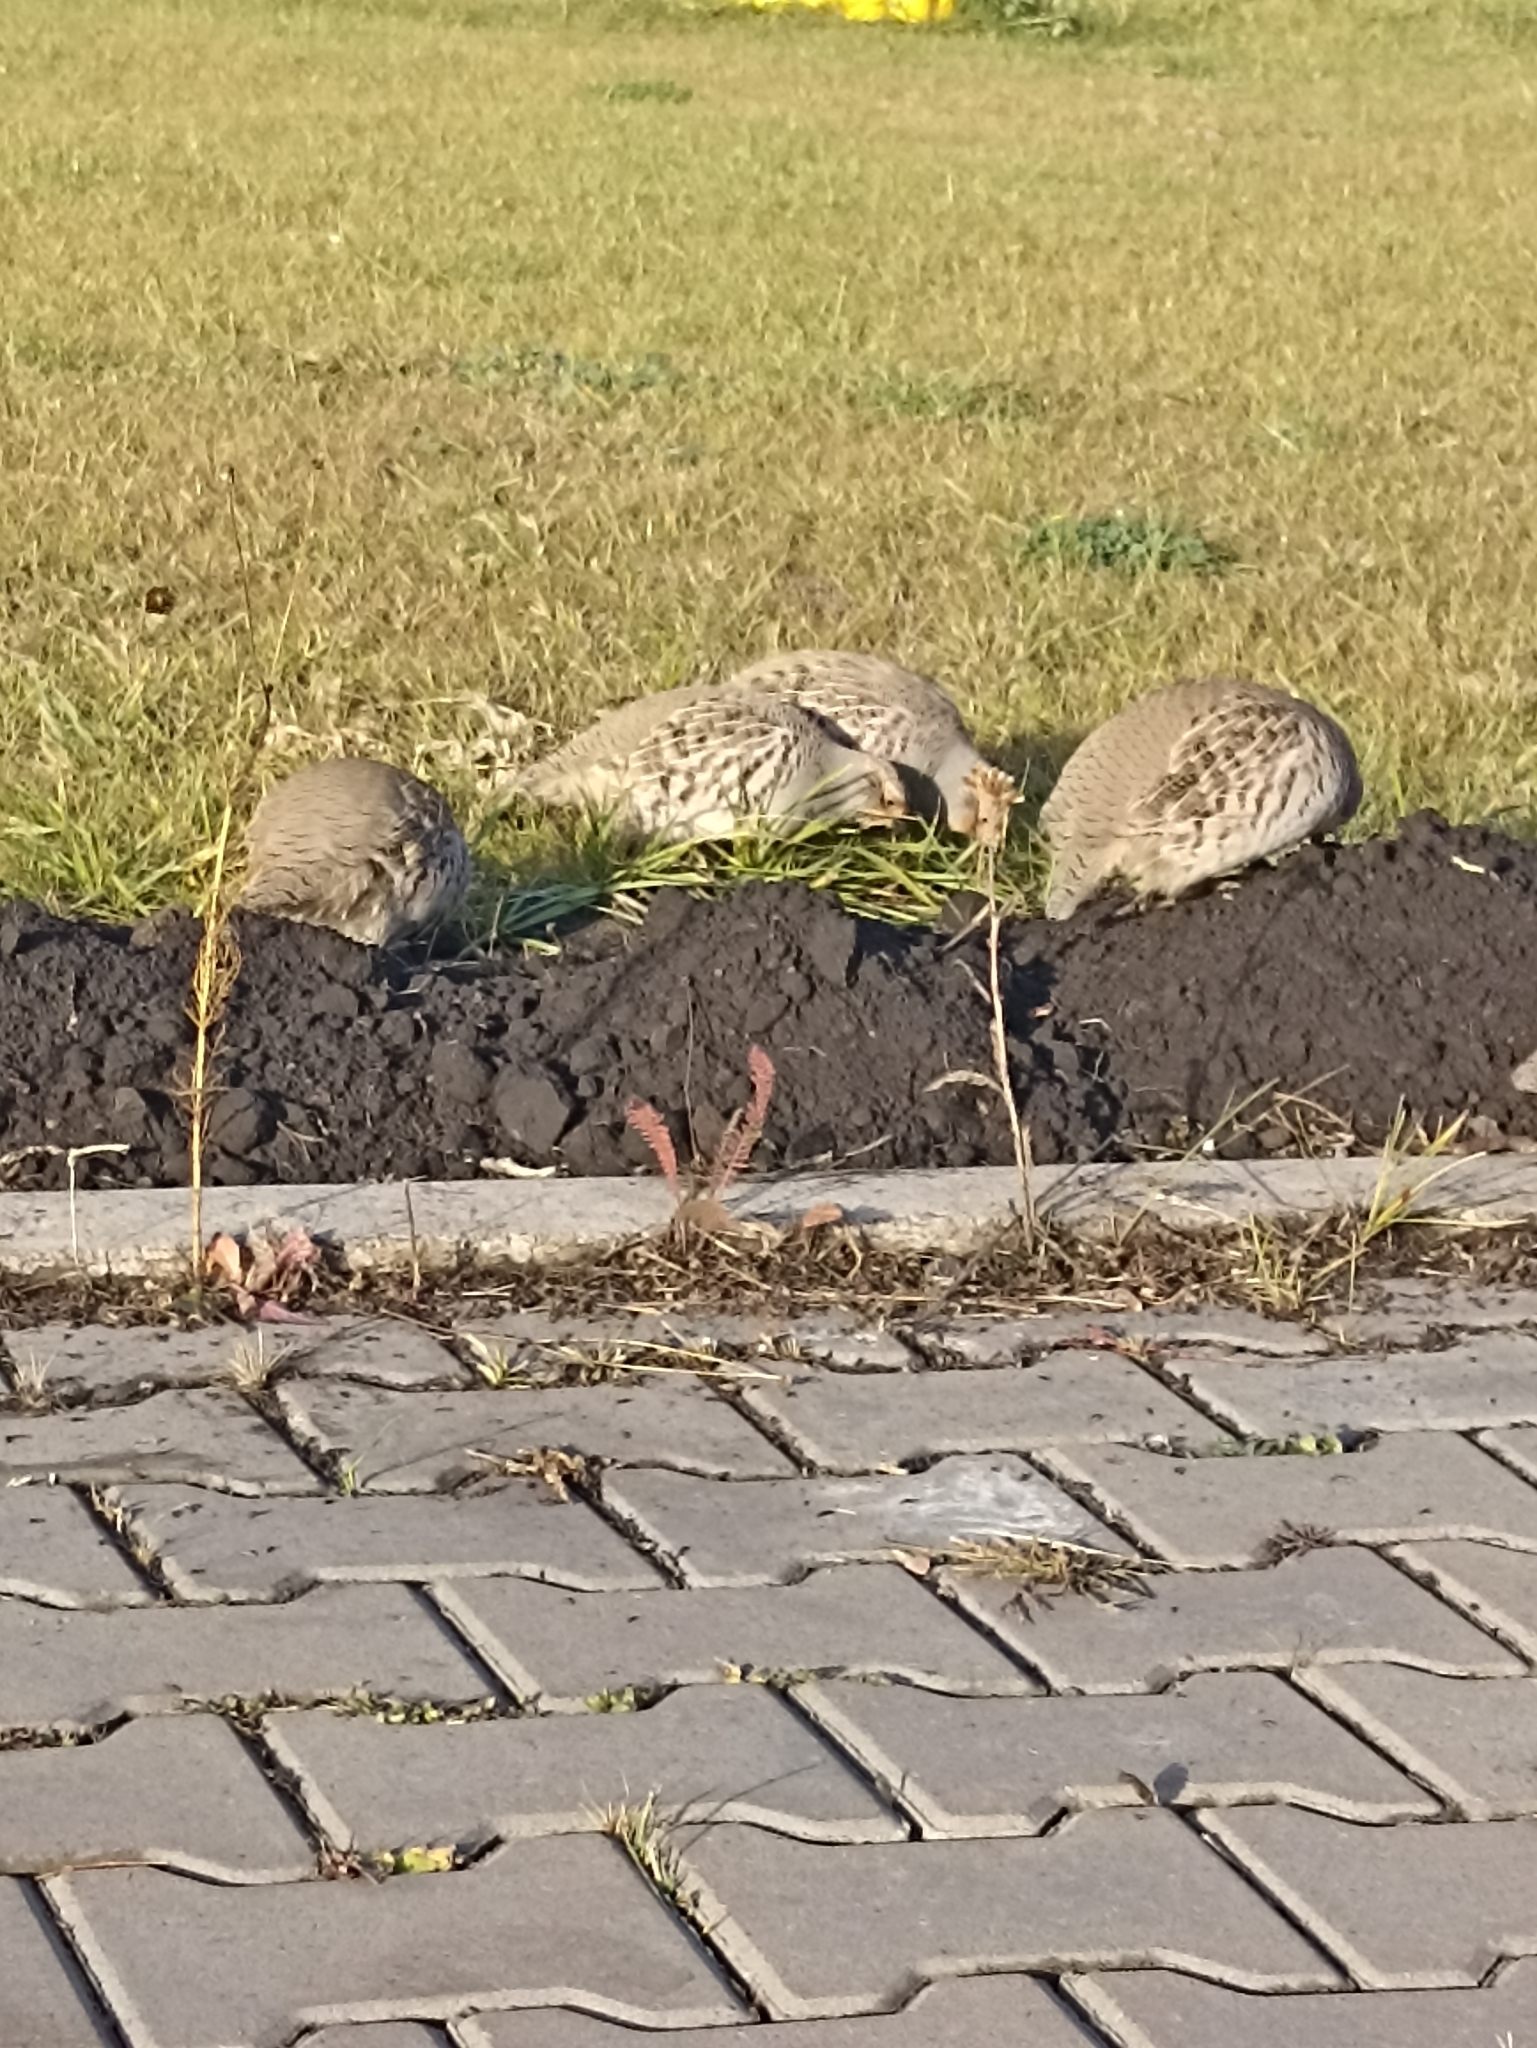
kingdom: Animalia
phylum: Chordata
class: Aves
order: Galliformes
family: Phasianidae
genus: Perdix
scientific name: Perdix perdix
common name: Grey partridge
